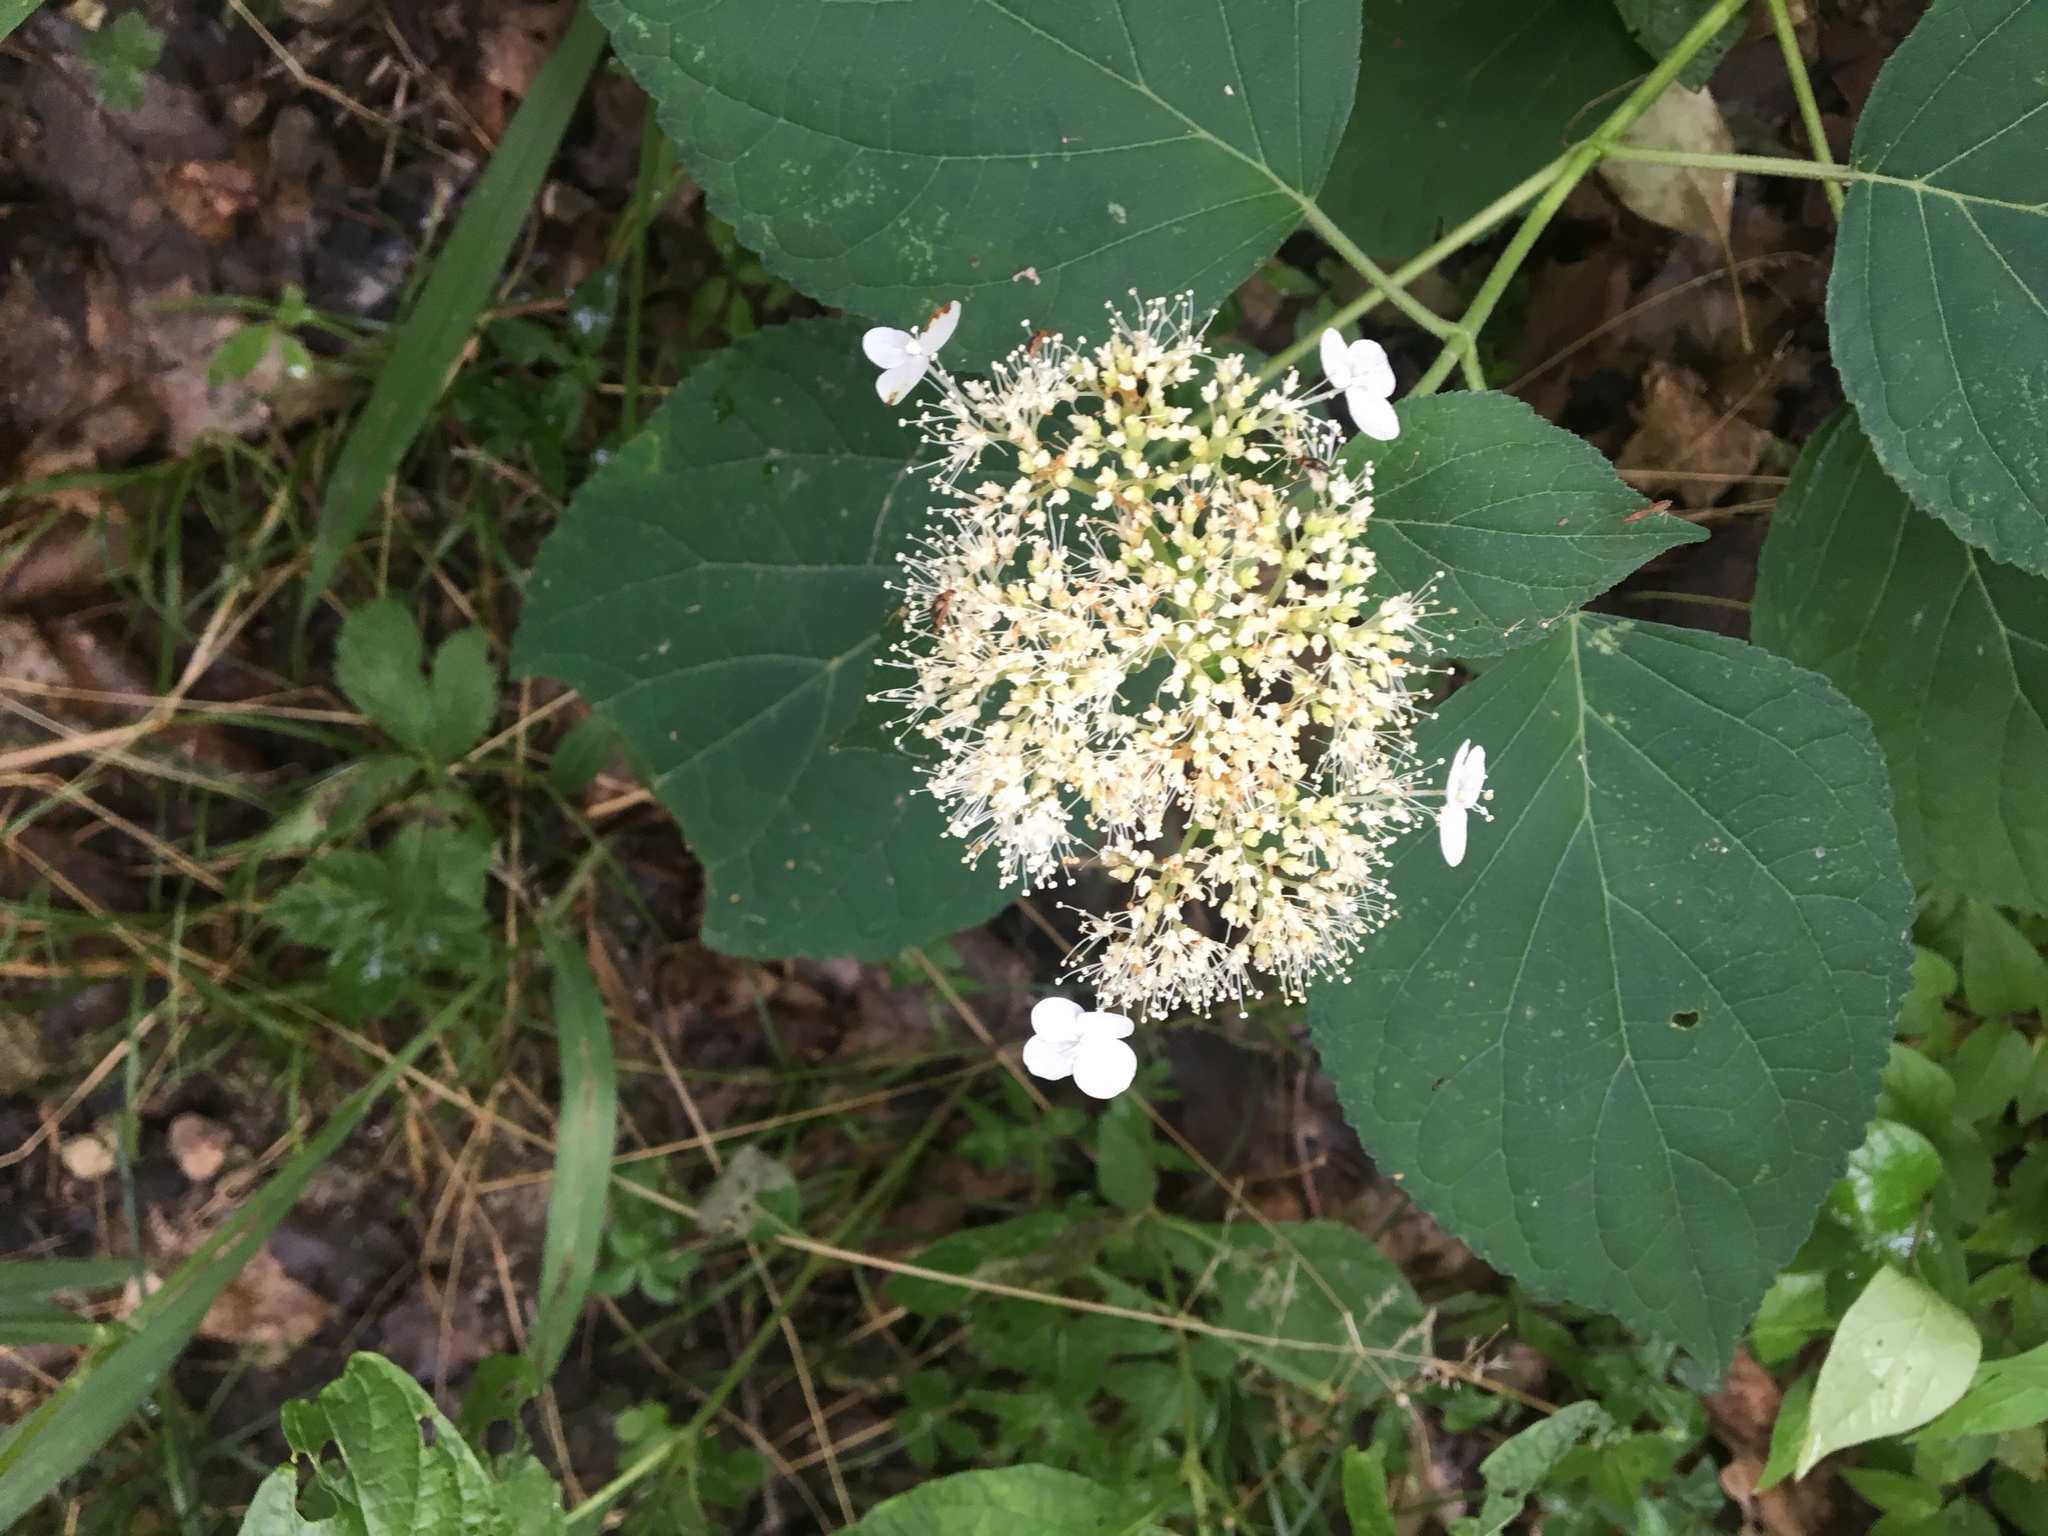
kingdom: Plantae
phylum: Tracheophyta
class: Magnoliopsida
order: Cornales
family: Hydrangeaceae
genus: Hydrangea
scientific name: Hydrangea arborescens
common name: Sevenbark
